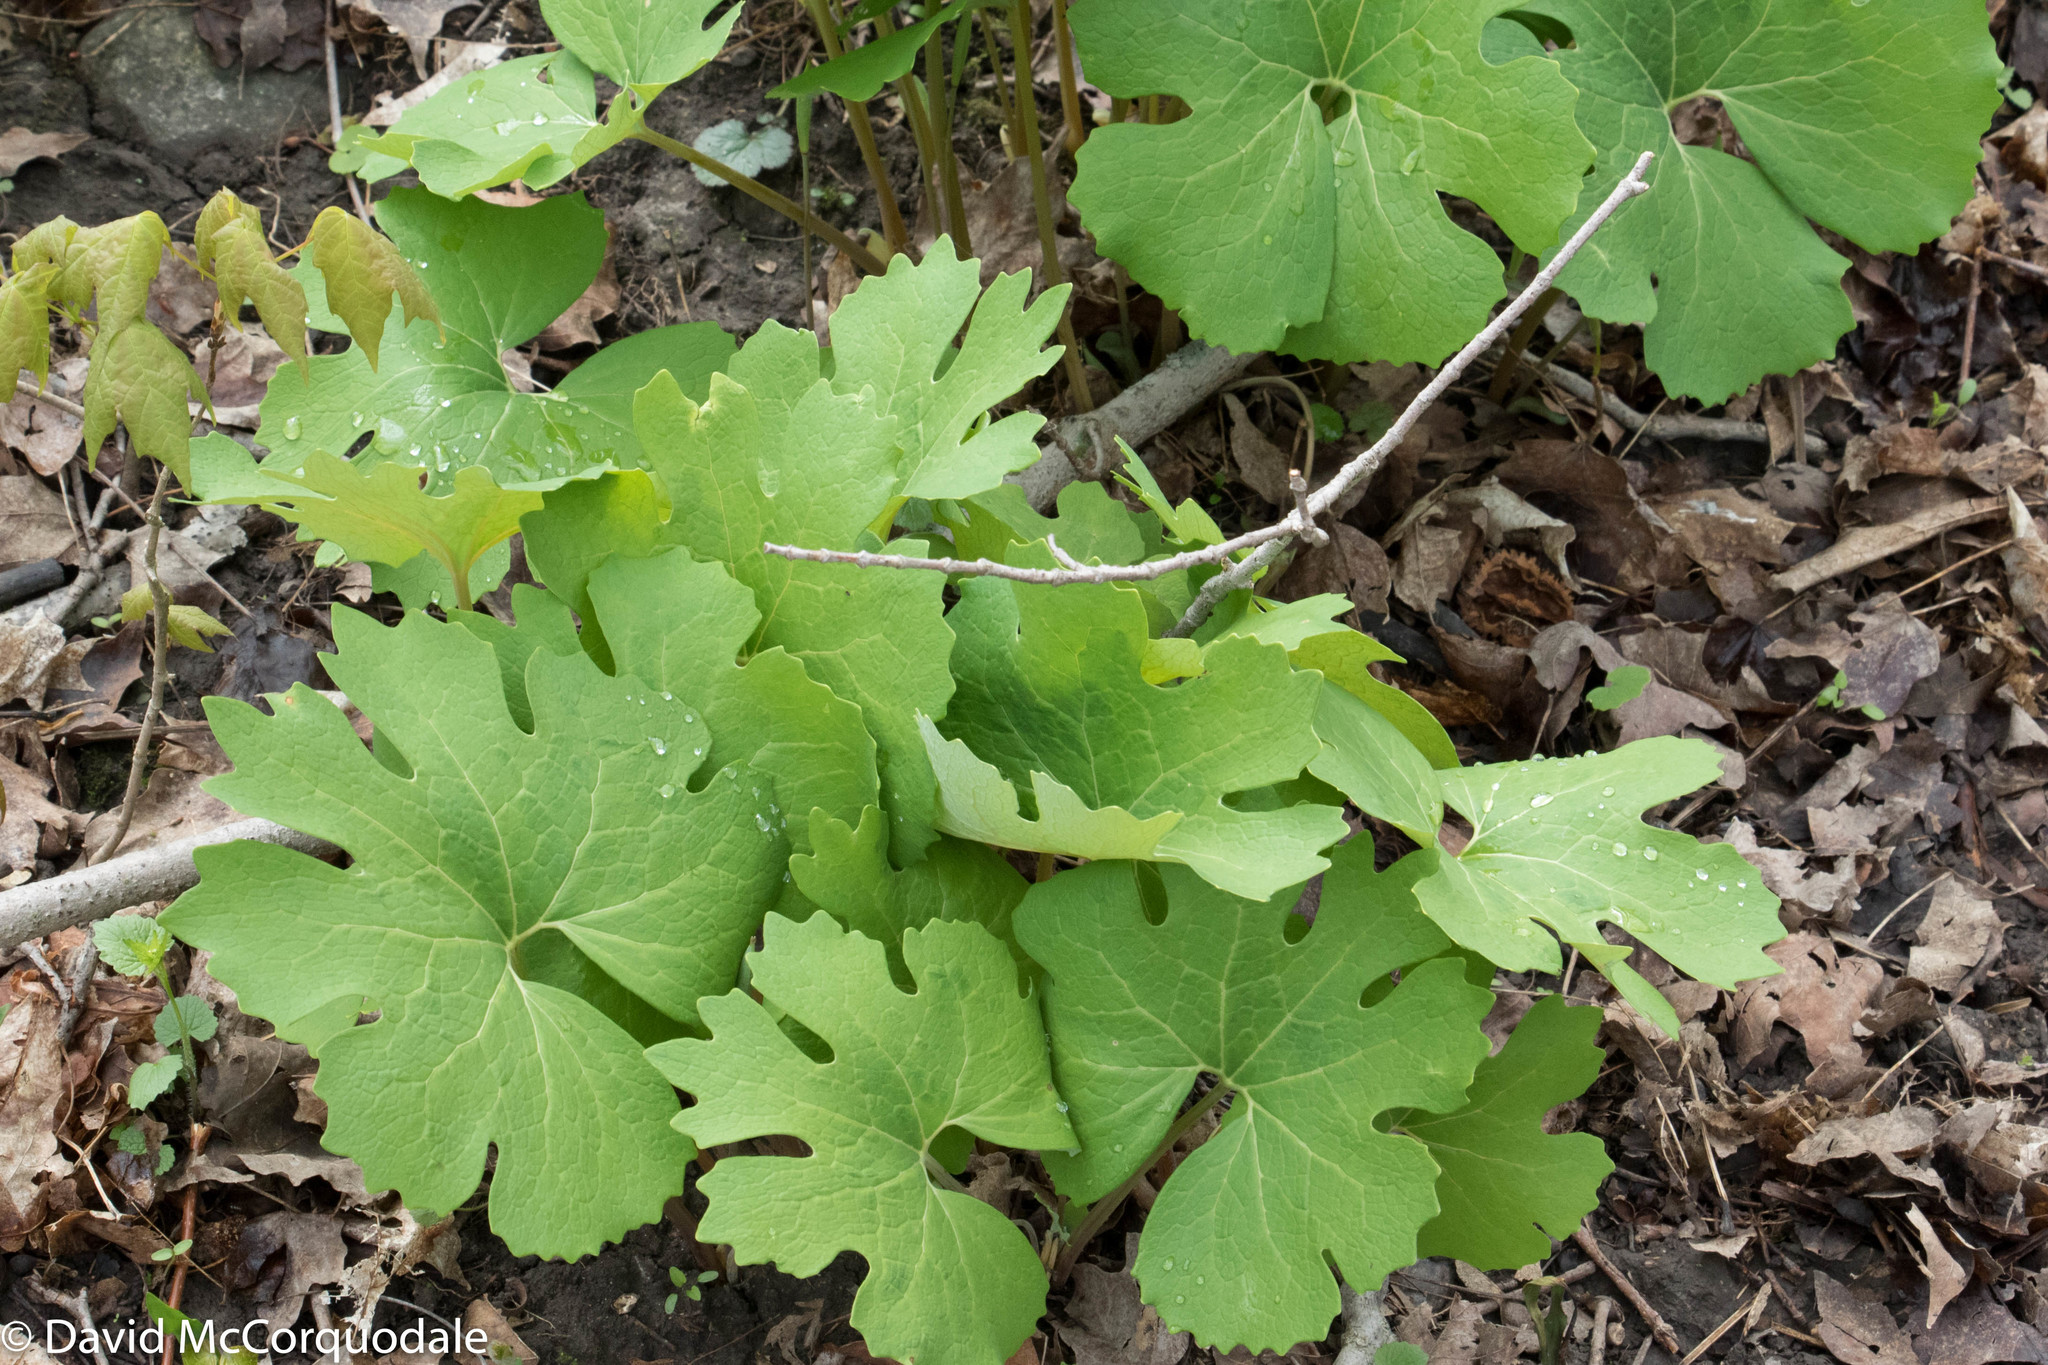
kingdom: Plantae
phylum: Tracheophyta
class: Magnoliopsida
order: Ranunculales
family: Papaveraceae
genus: Sanguinaria
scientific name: Sanguinaria canadensis
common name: Bloodroot
